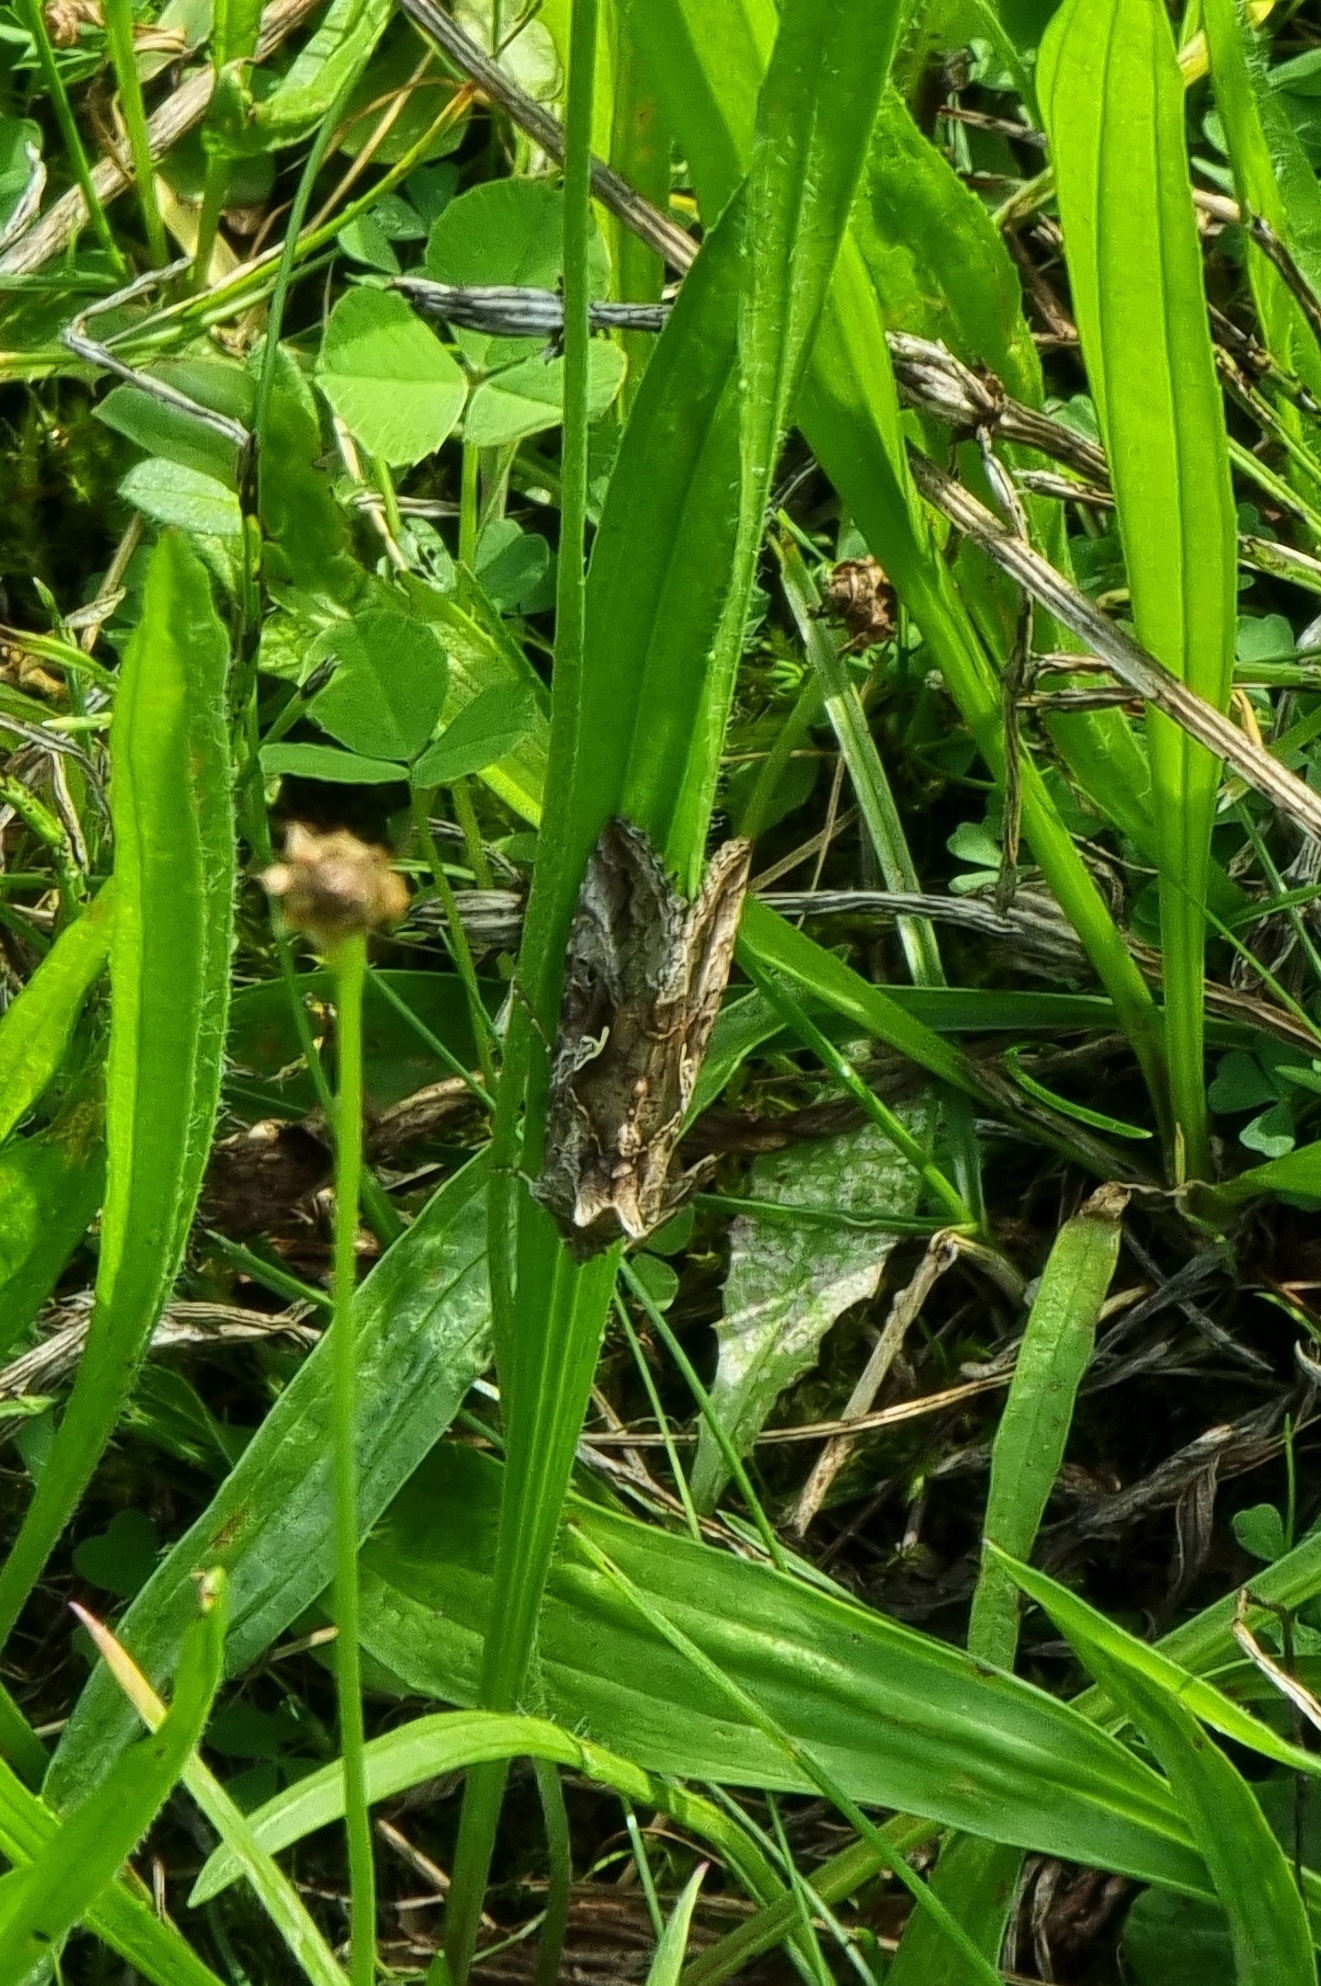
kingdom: Animalia
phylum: Arthropoda
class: Insecta
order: Lepidoptera
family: Noctuidae
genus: Autographa
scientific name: Autographa gamma
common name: Silver y
